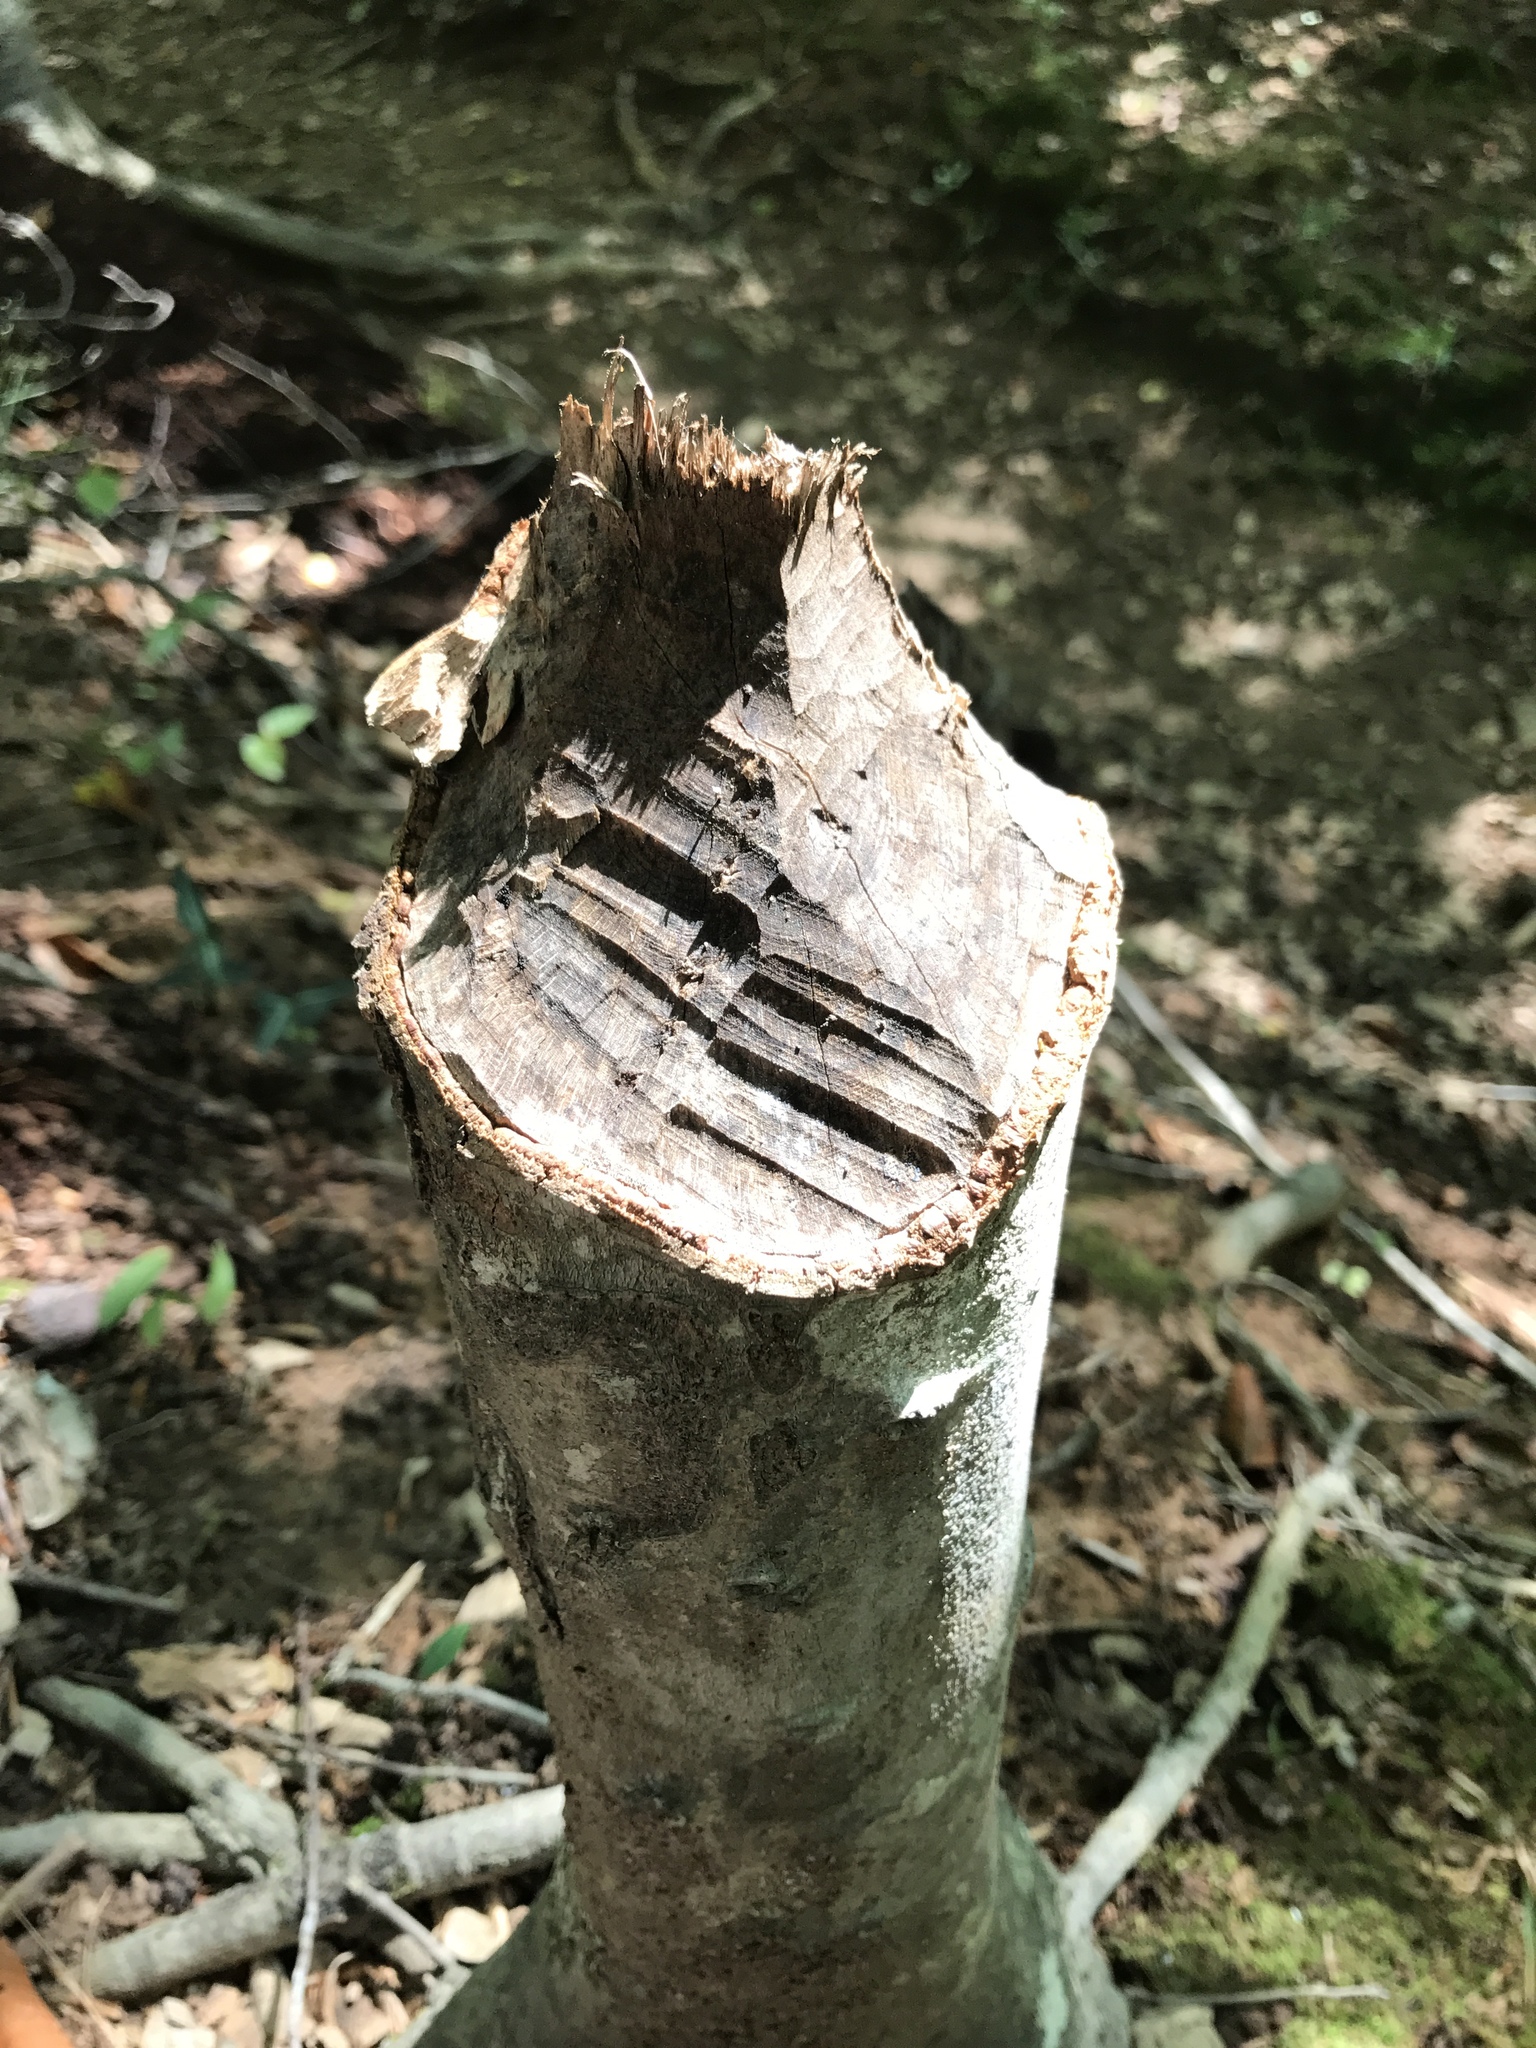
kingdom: Animalia
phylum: Chordata
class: Mammalia
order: Rodentia
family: Castoridae
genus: Castor
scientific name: Castor canadensis
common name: American beaver
